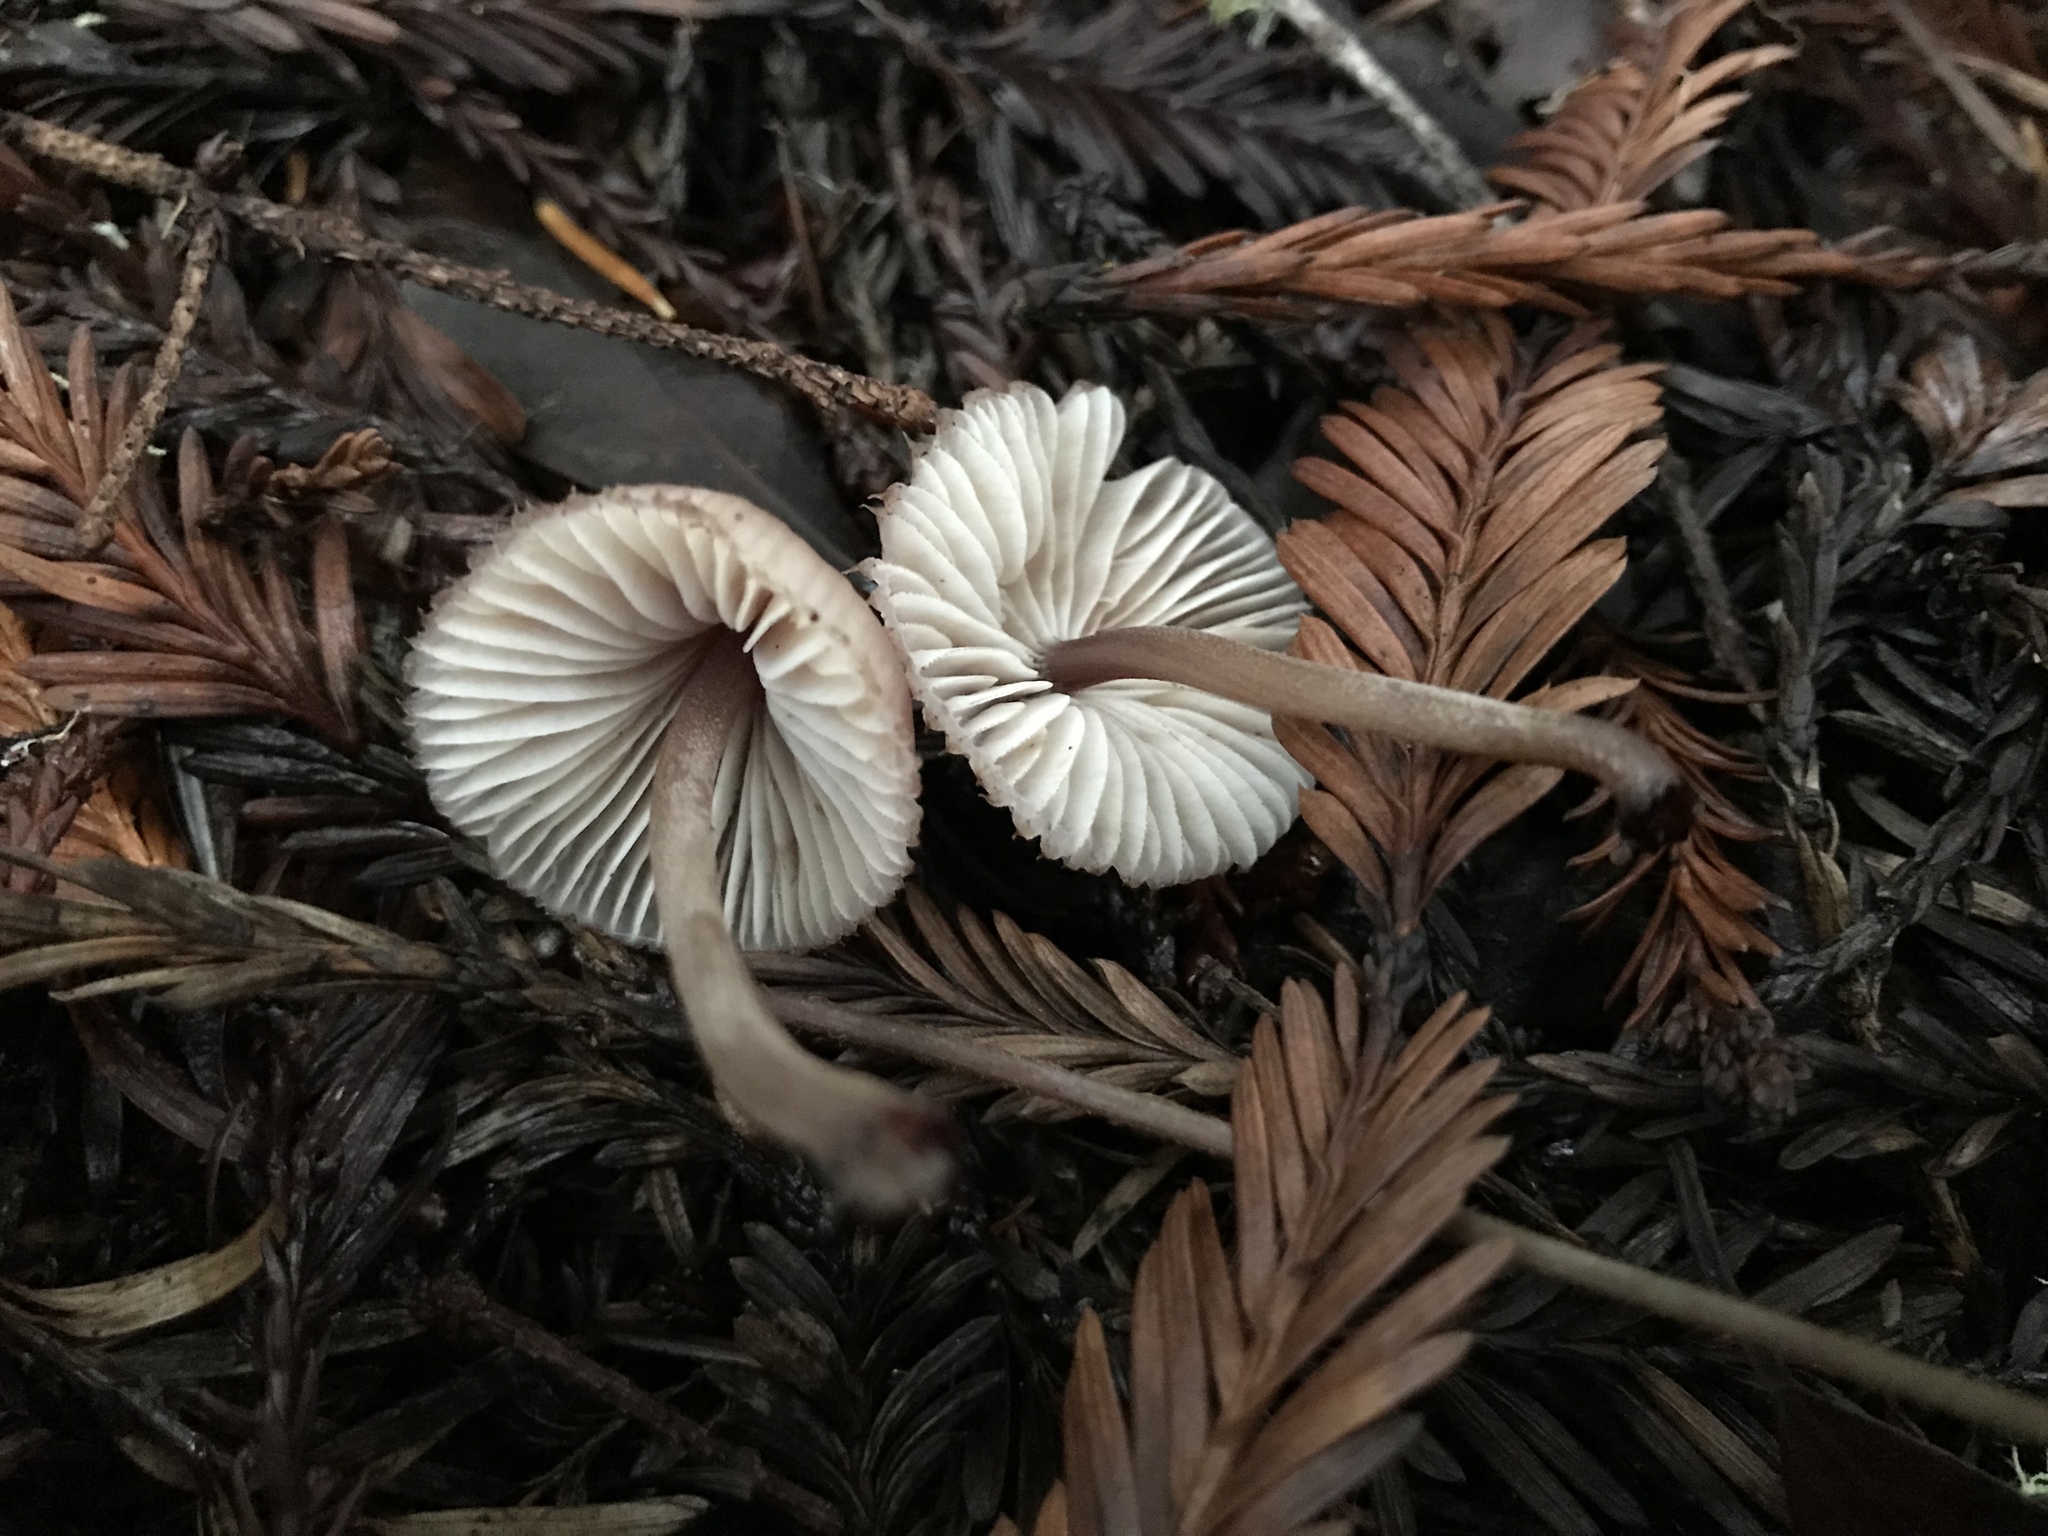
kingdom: Fungi
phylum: Basidiomycota
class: Agaricomycetes
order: Agaricales
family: Mycenaceae
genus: Mycena
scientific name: Mycena haematopus
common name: Burgundydrop bonnet
